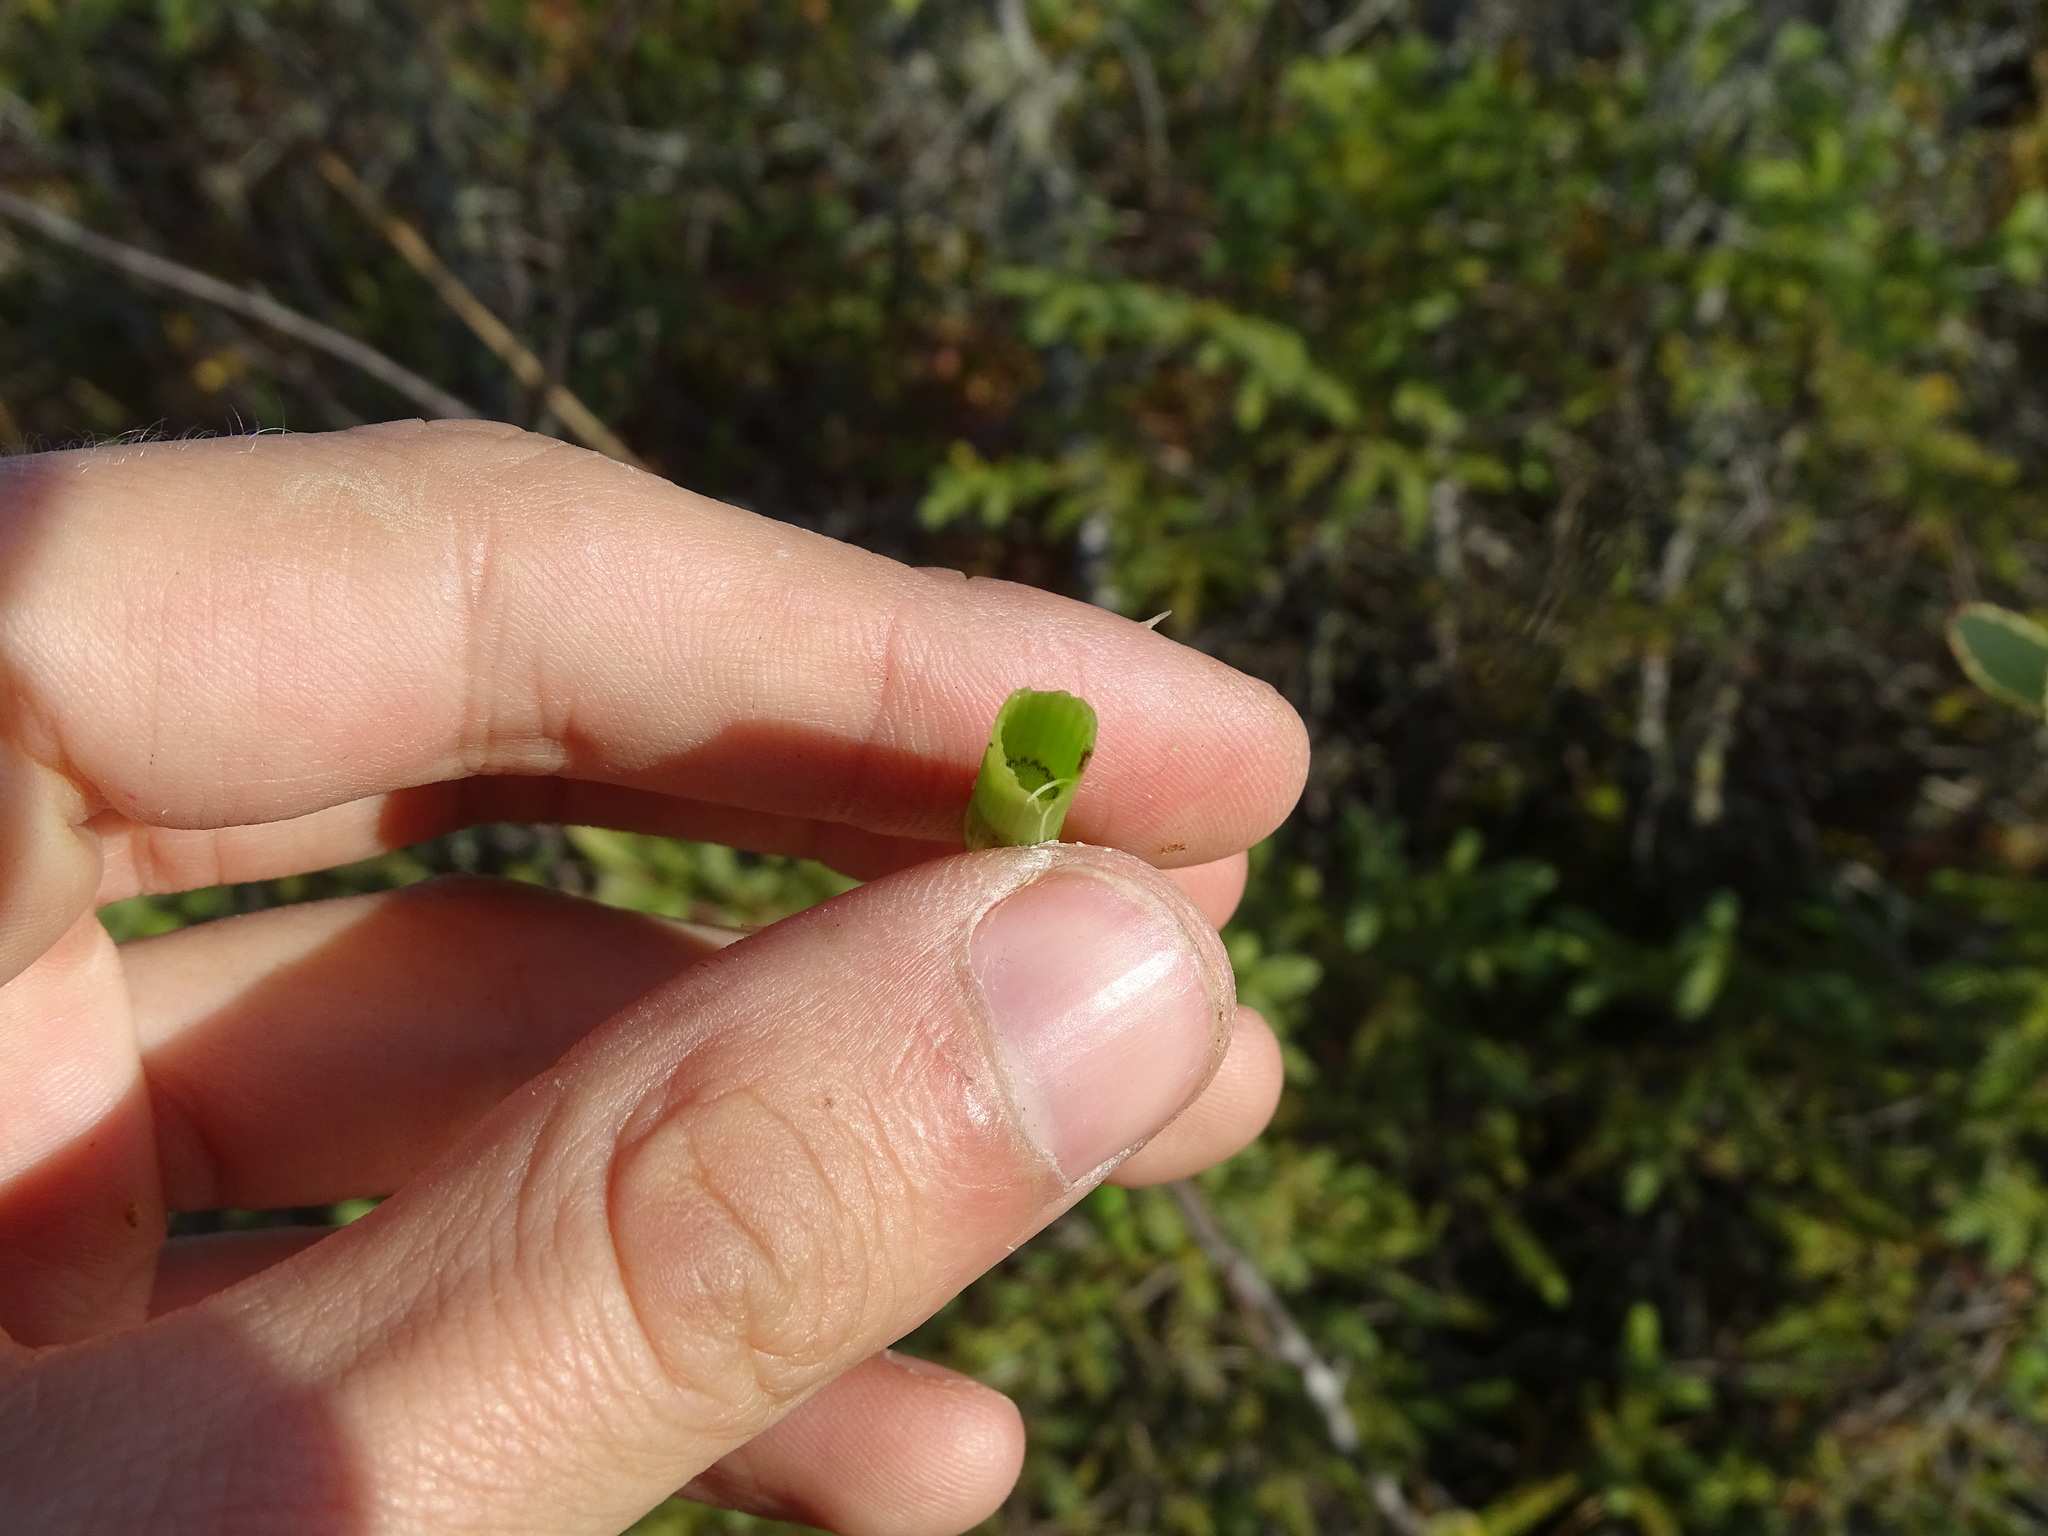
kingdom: Plantae
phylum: Tracheophyta
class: Polypodiopsida
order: Equisetales
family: Equisetaceae
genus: Equisetum
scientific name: Equisetum fluviatile
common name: Water horsetail
